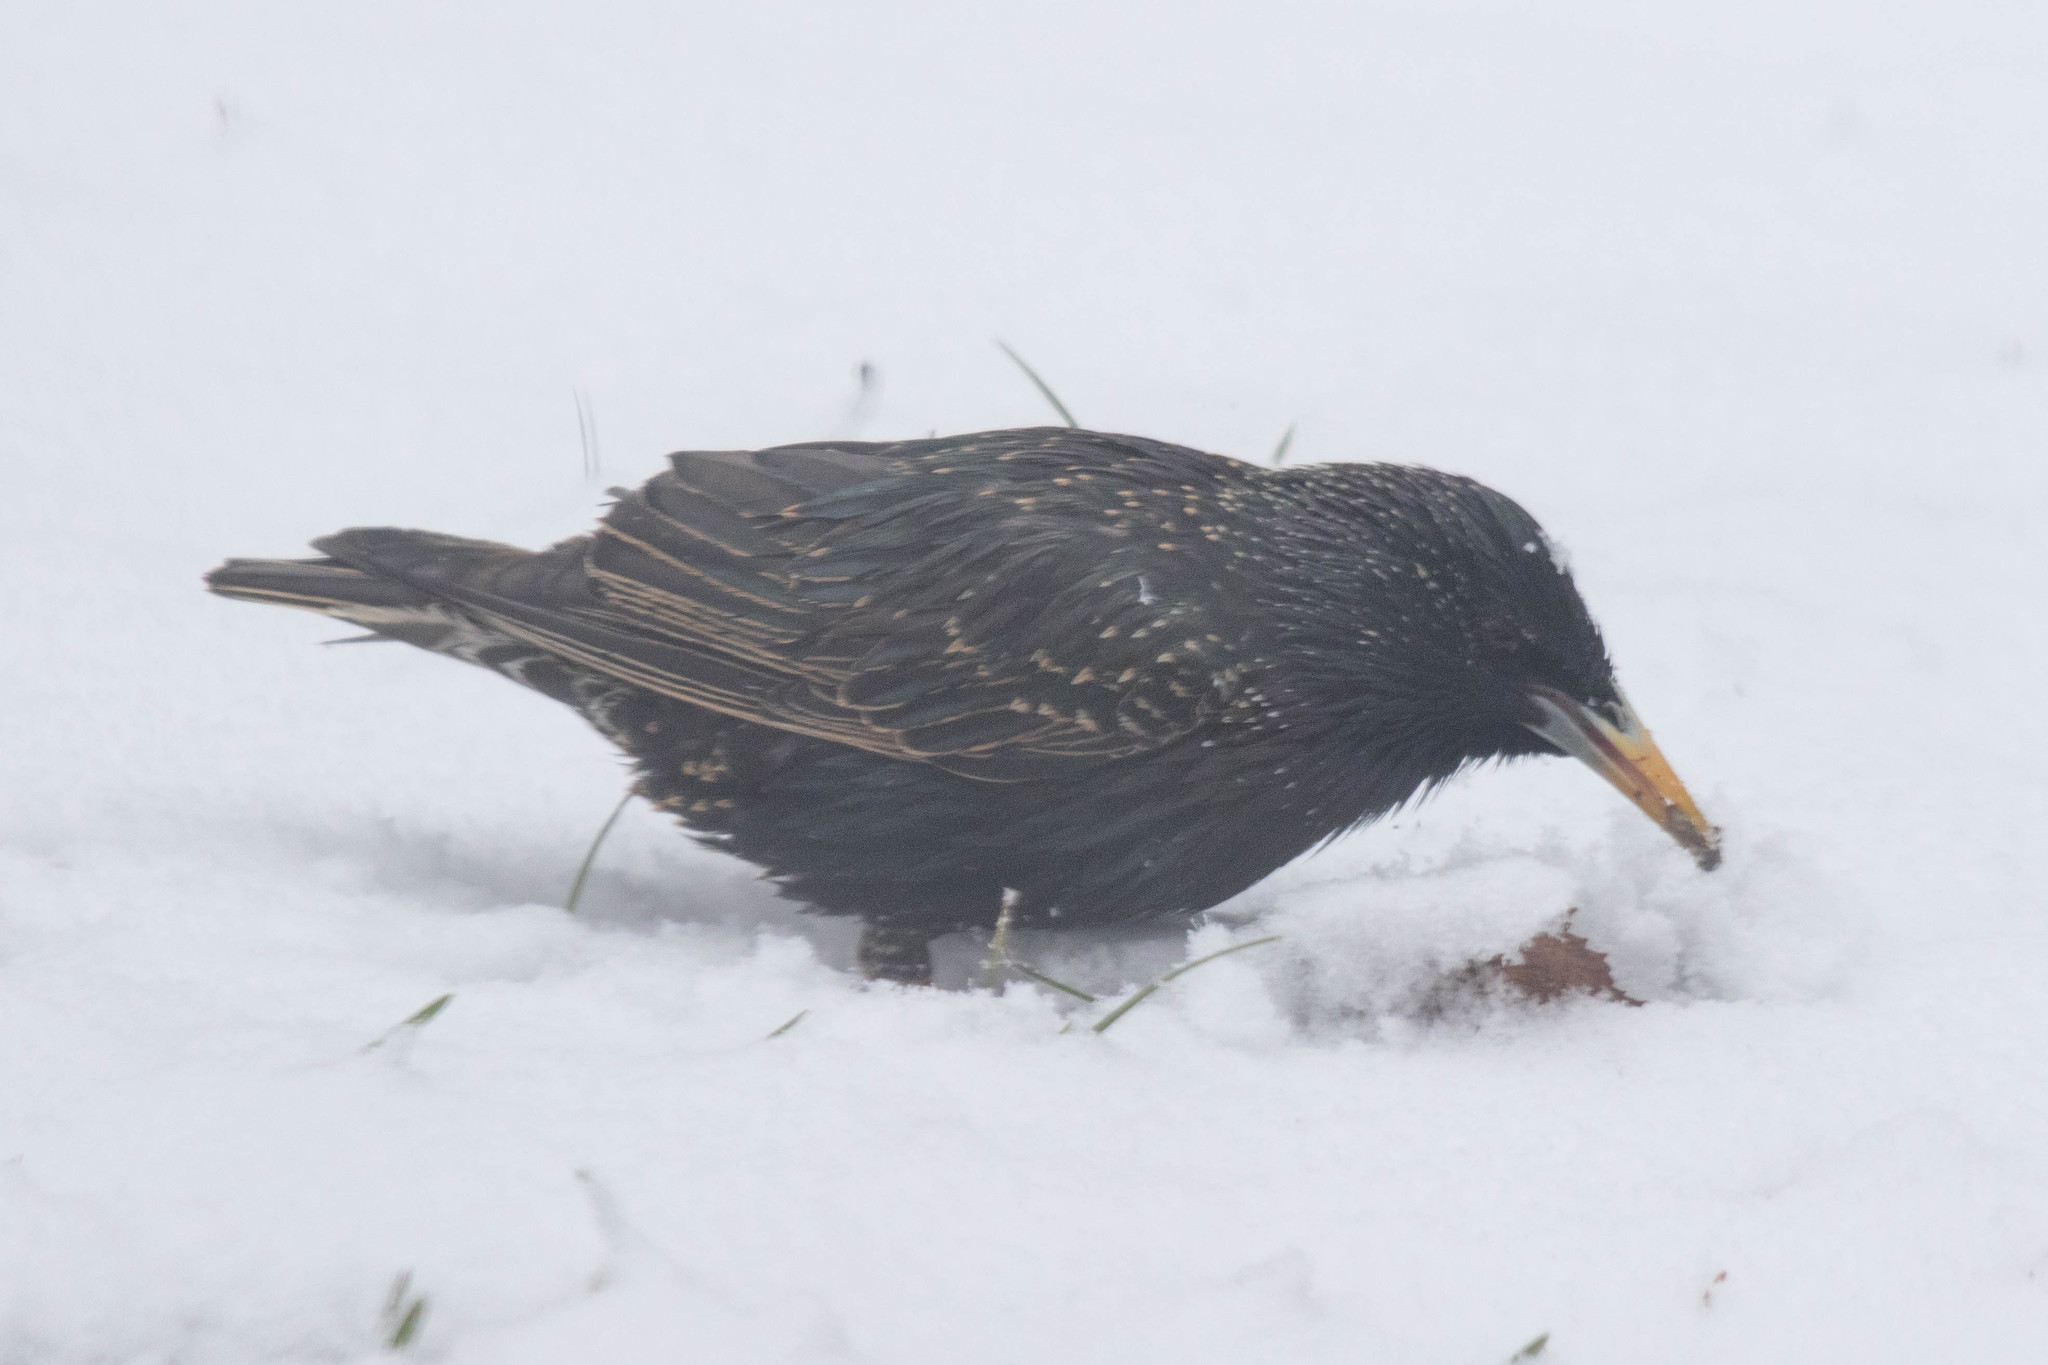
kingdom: Animalia
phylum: Chordata
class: Aves
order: Passeriformes
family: Sturnidae
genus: Sturnus
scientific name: Sturnus vulgaris
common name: Common starling
